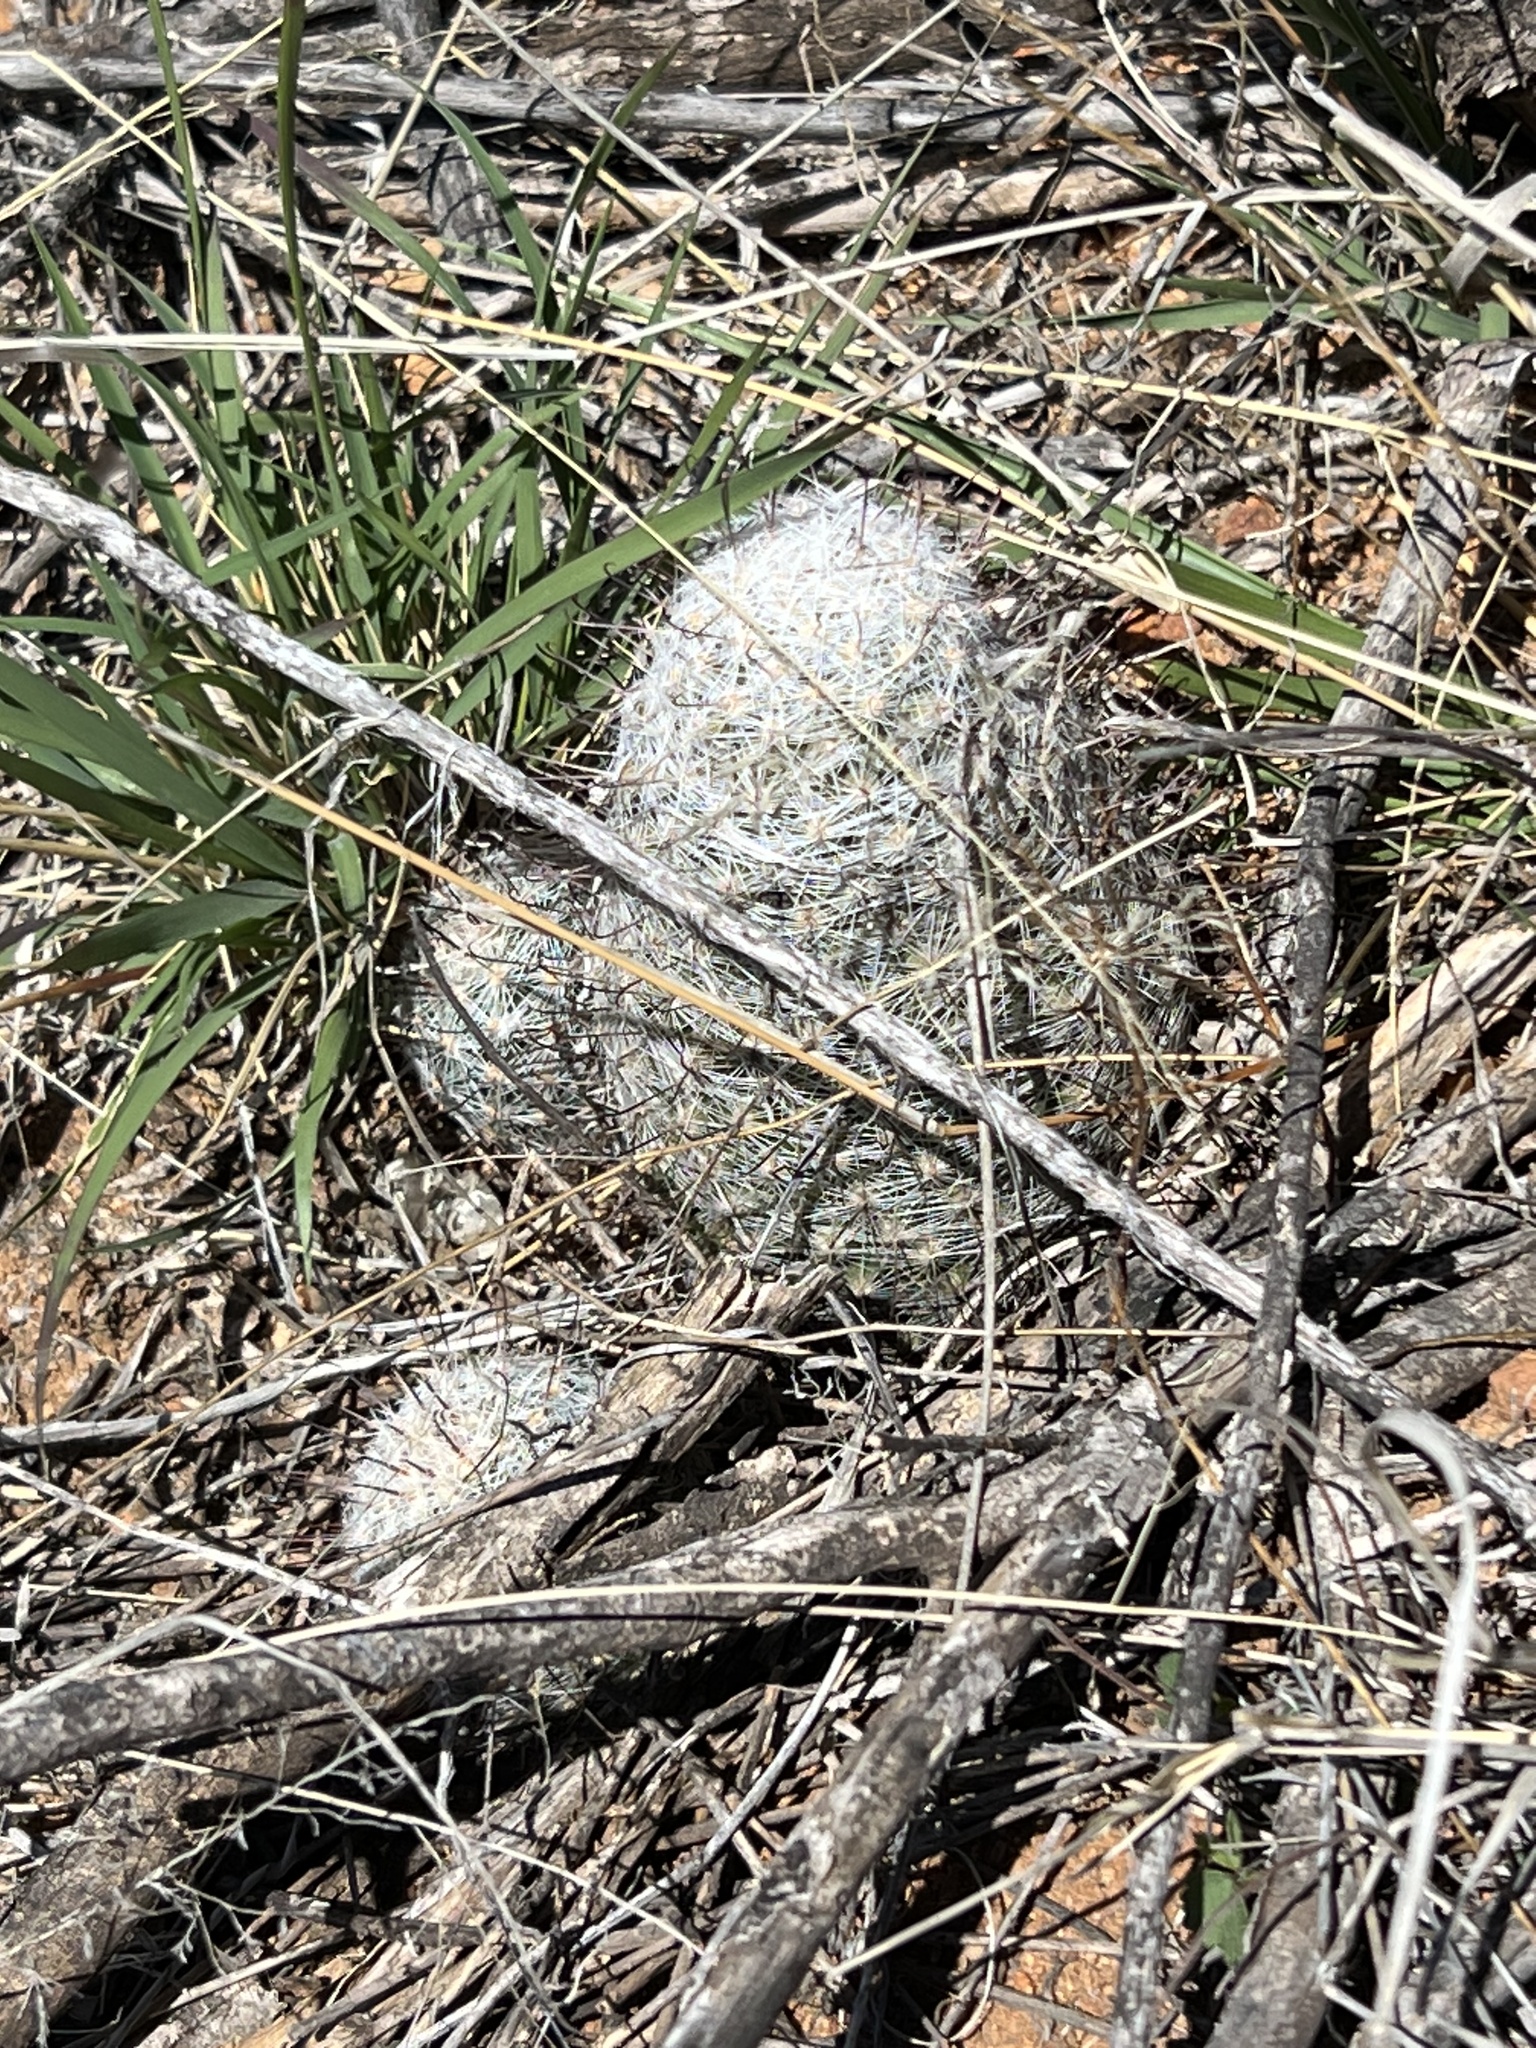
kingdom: Plantae
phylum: Tracheophyta
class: Magnoliopsida
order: Caryophyllales
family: Cactaceae
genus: Cochemiea
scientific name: Cochemiea grahamii
